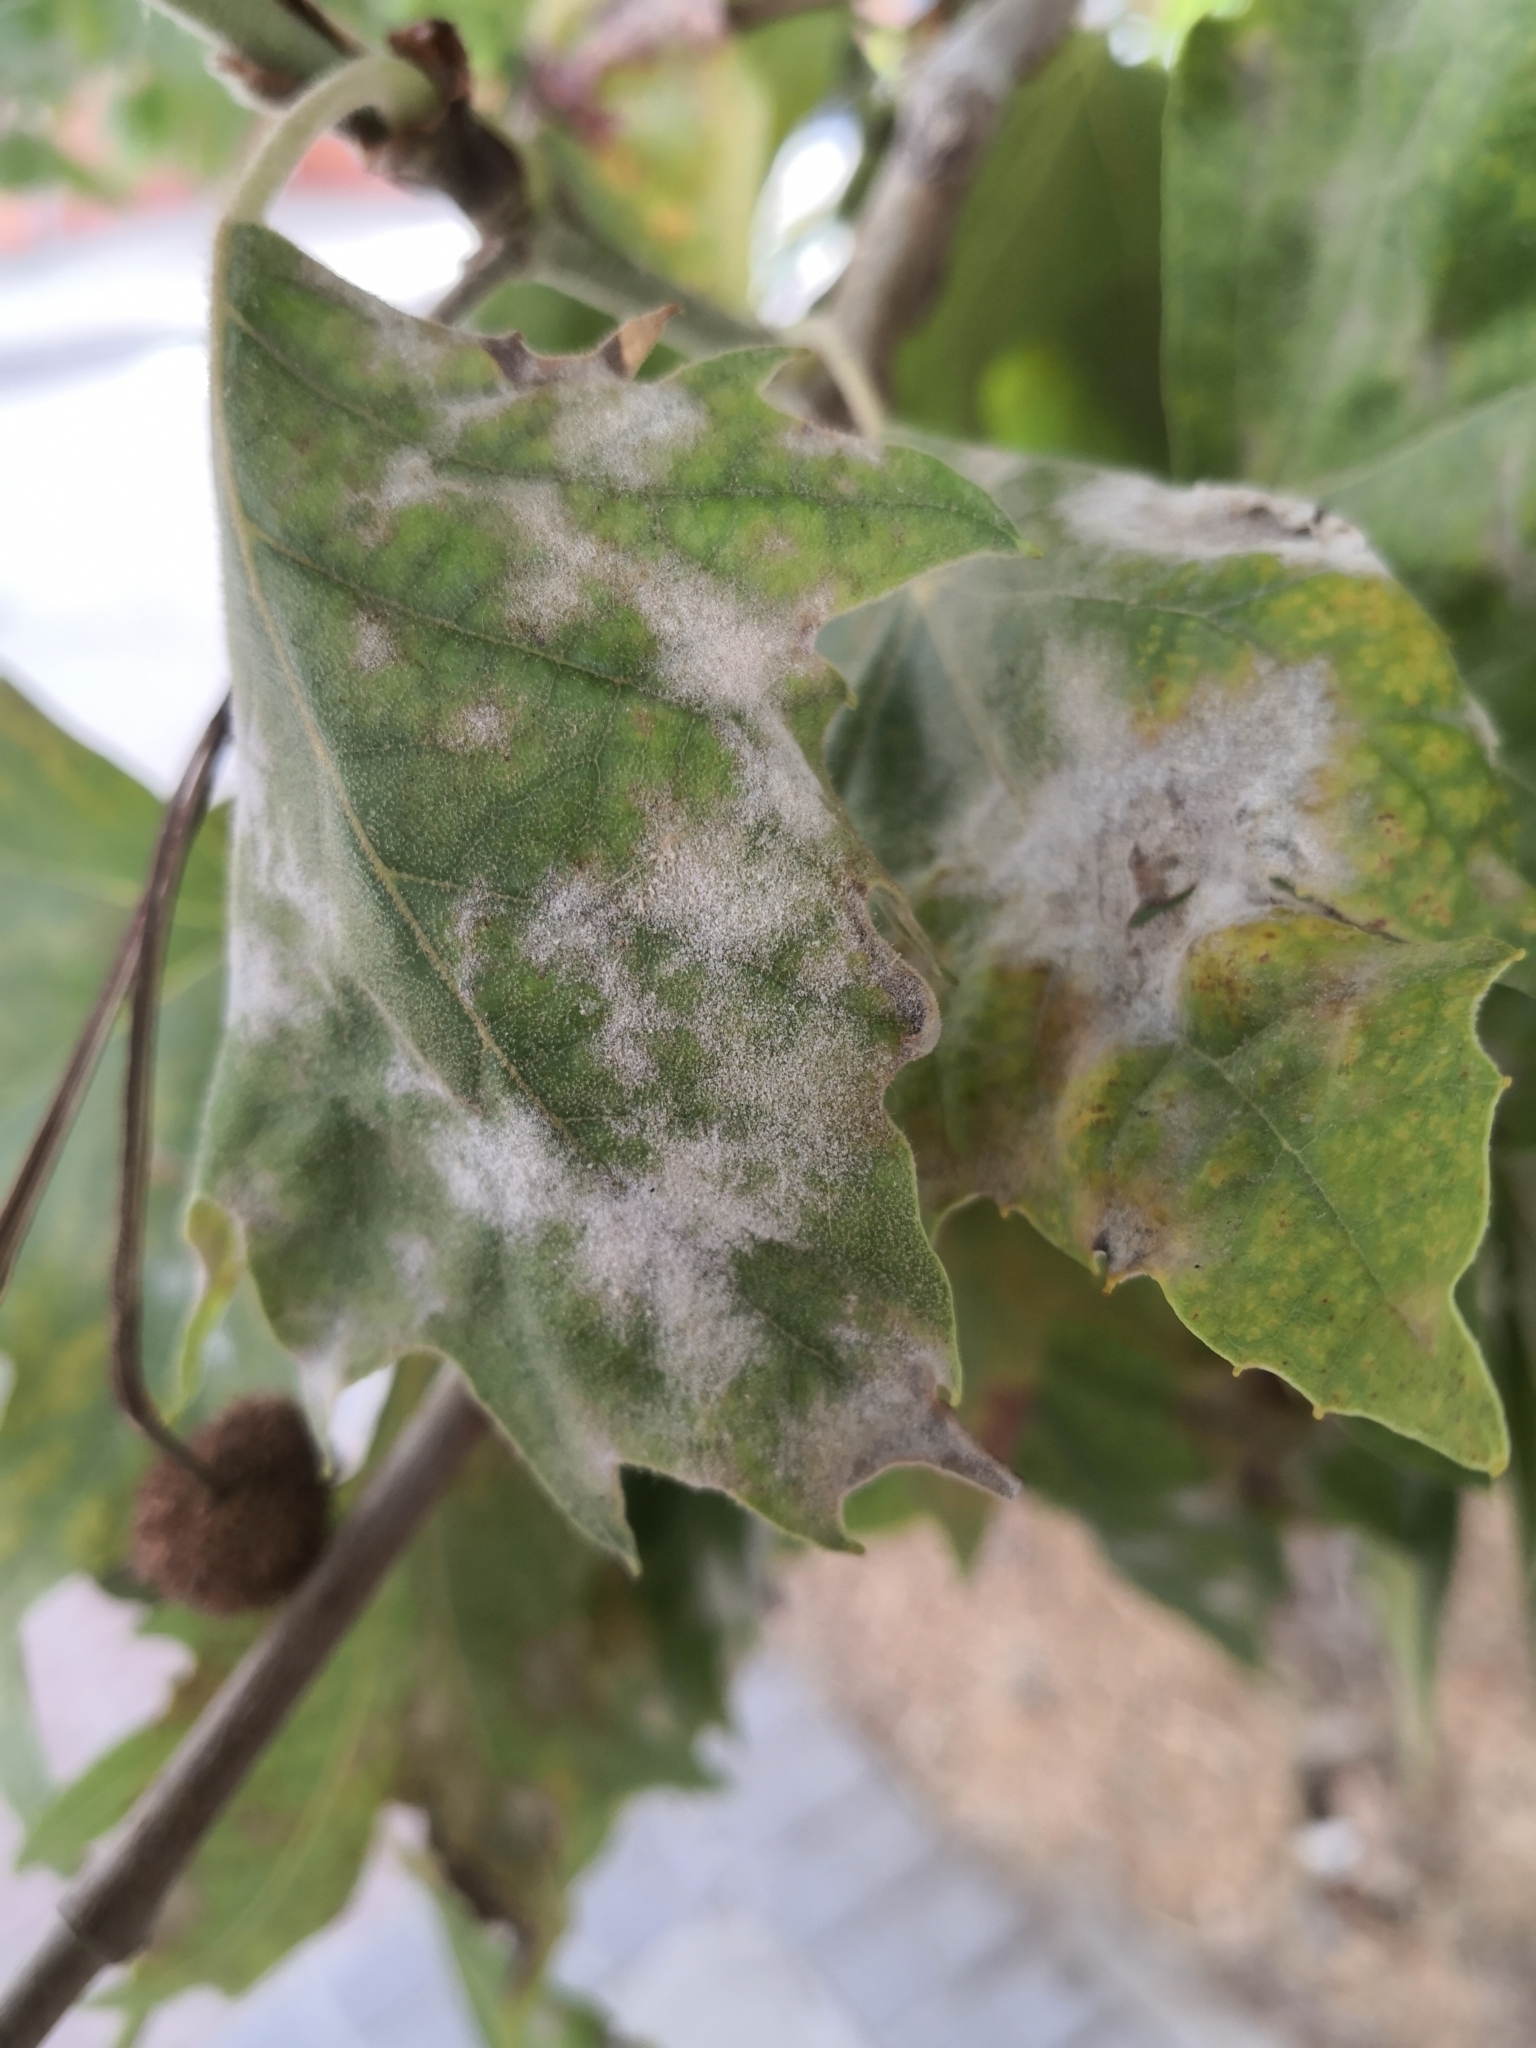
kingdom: Fungi
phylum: Ascomycota
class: Leotiomycetes
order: Helotiales
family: Erysiphaceae
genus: Erysiphe
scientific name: Erysiphe platani
